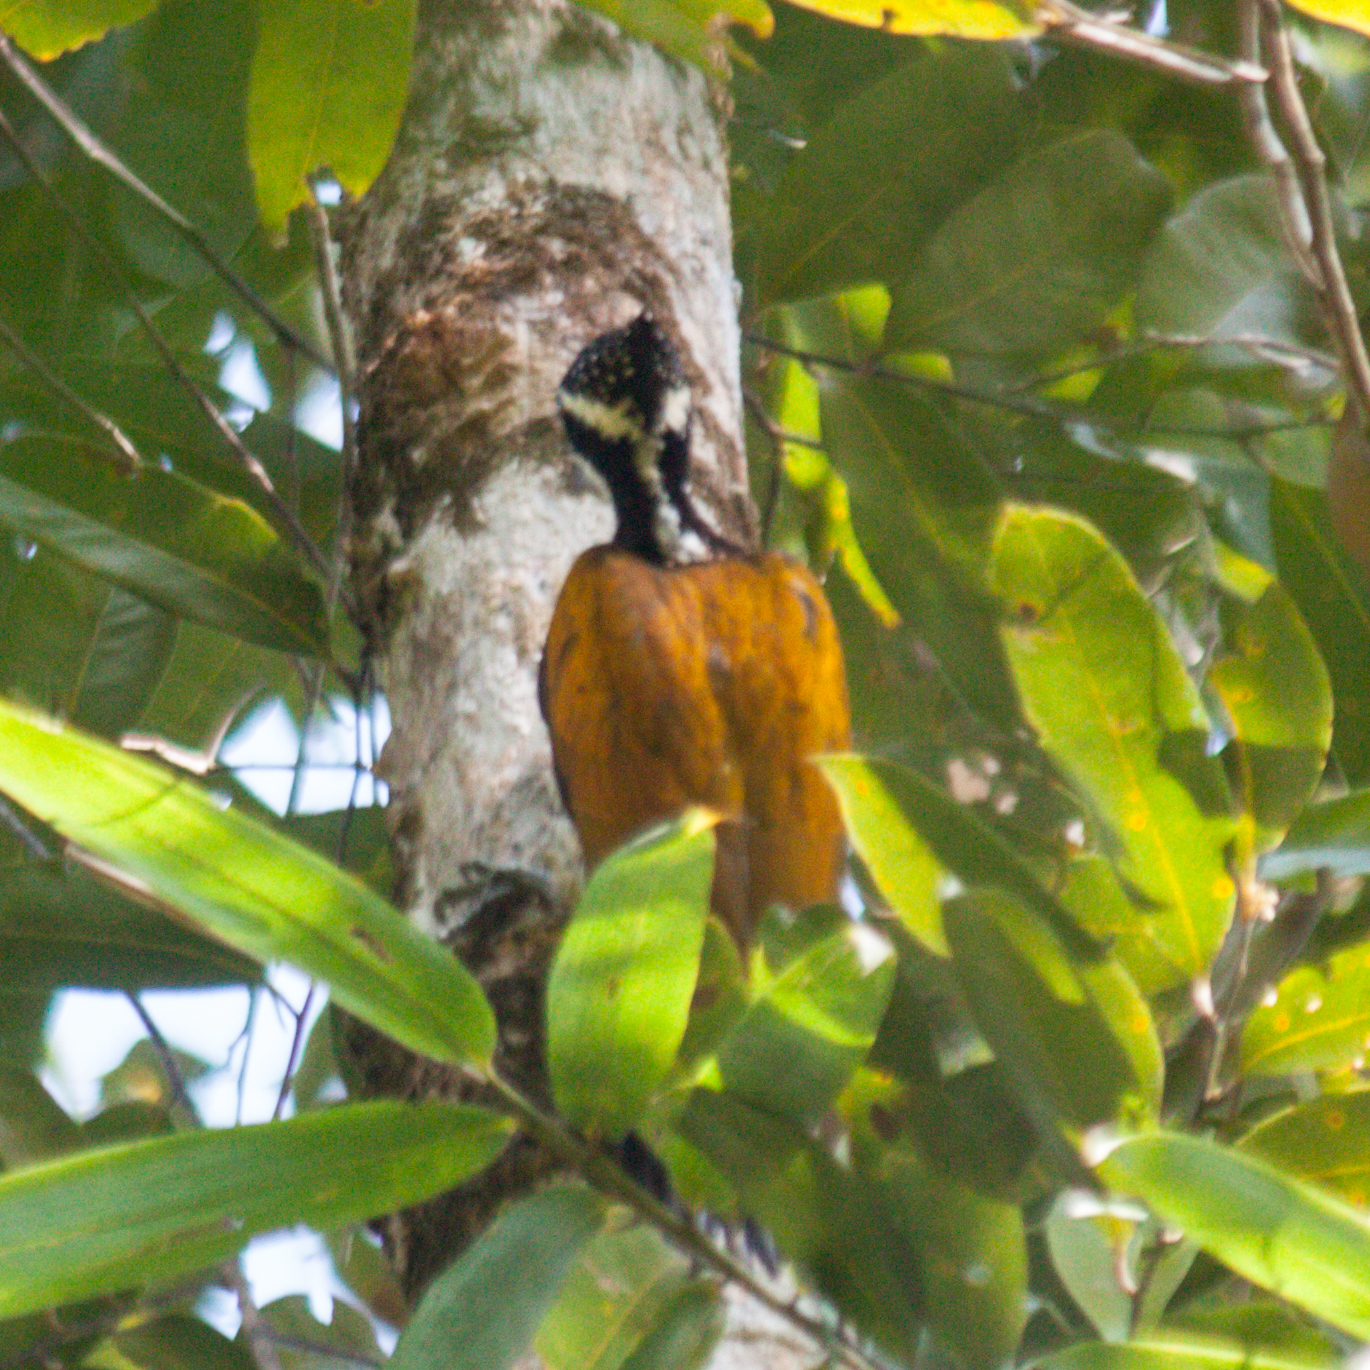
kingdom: Animalia
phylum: Chordata
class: Aves
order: Piciformes
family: Picidae
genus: Chrysocolaptes
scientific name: Chrysocolaptes guttacristatus
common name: Greater flameback
